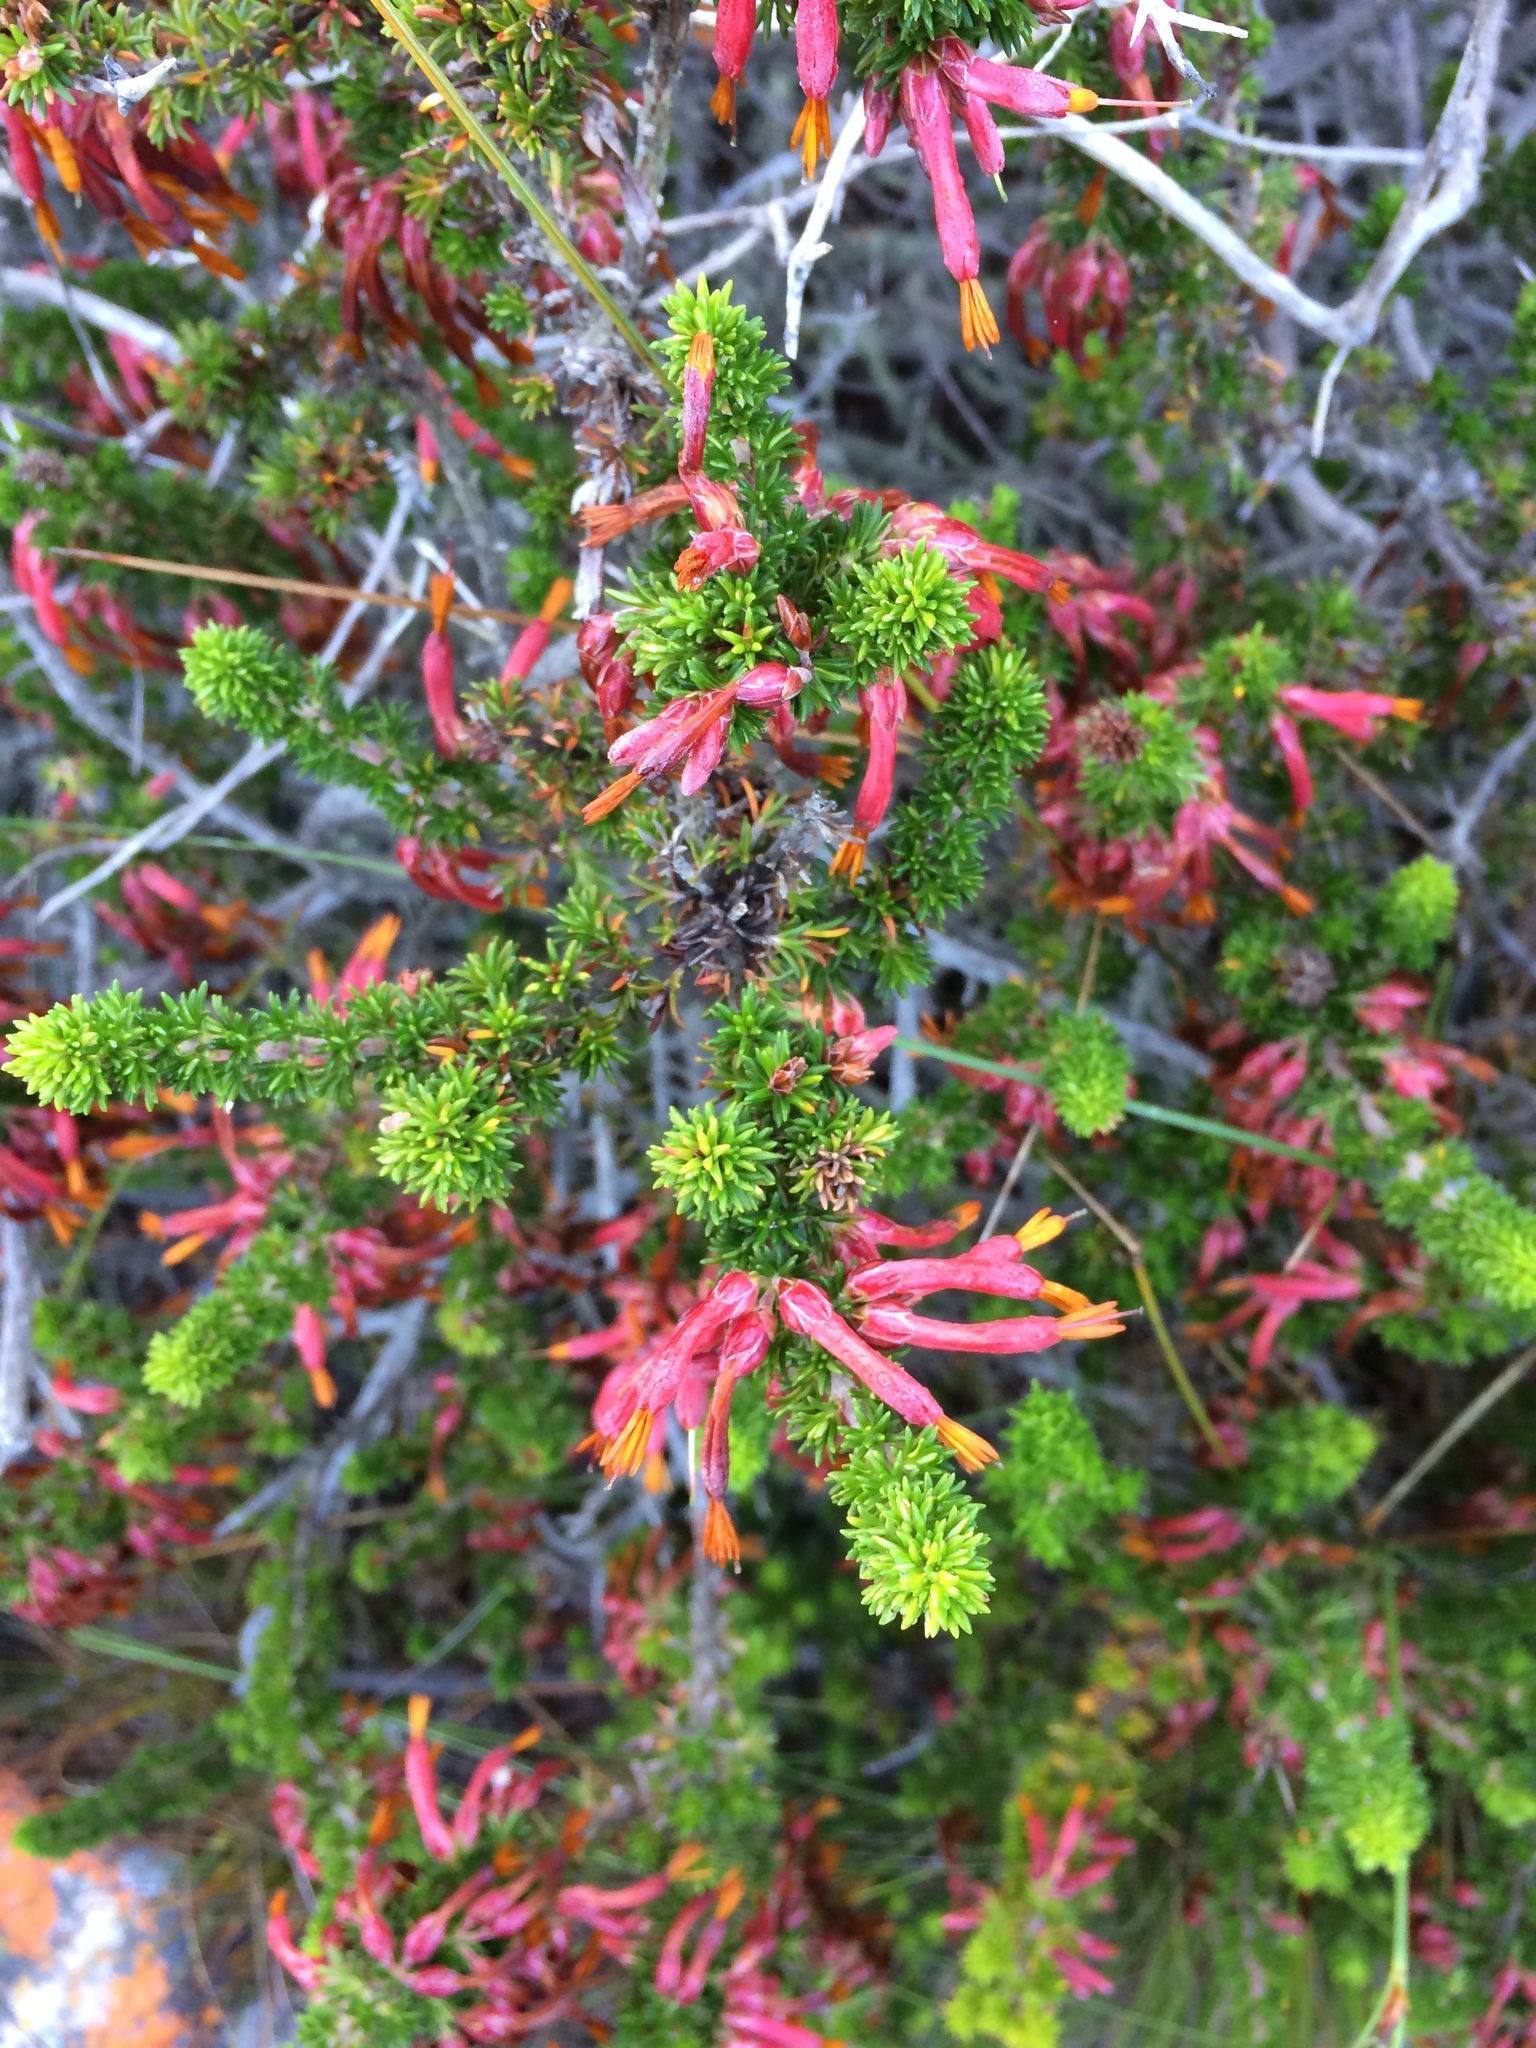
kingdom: Plantae
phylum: Tracheophyta
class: Magnoliopsida
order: Ericales
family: Ericaceae
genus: Erica
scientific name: Erica coccinea
